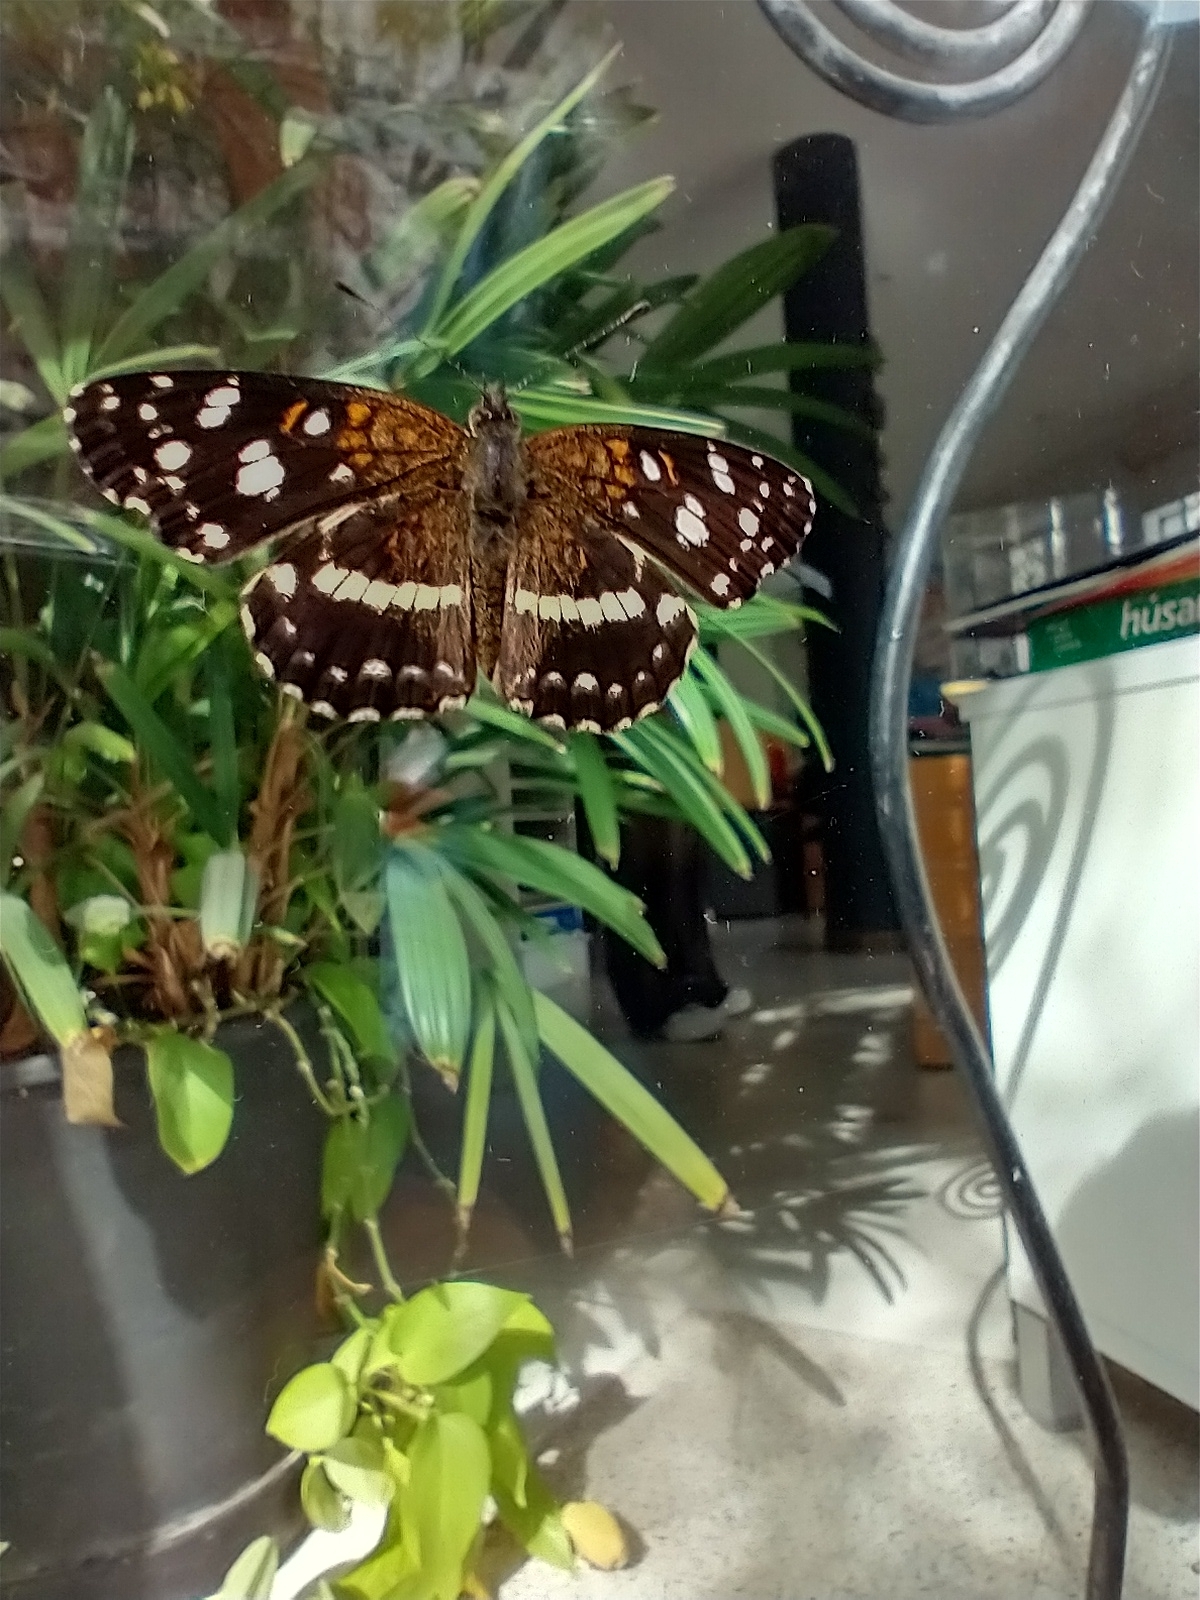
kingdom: Animalia
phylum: Arthropoda
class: Insecta
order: Lepidoptera
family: Nymphalidae
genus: Ortilia
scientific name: Ortilia ithra
